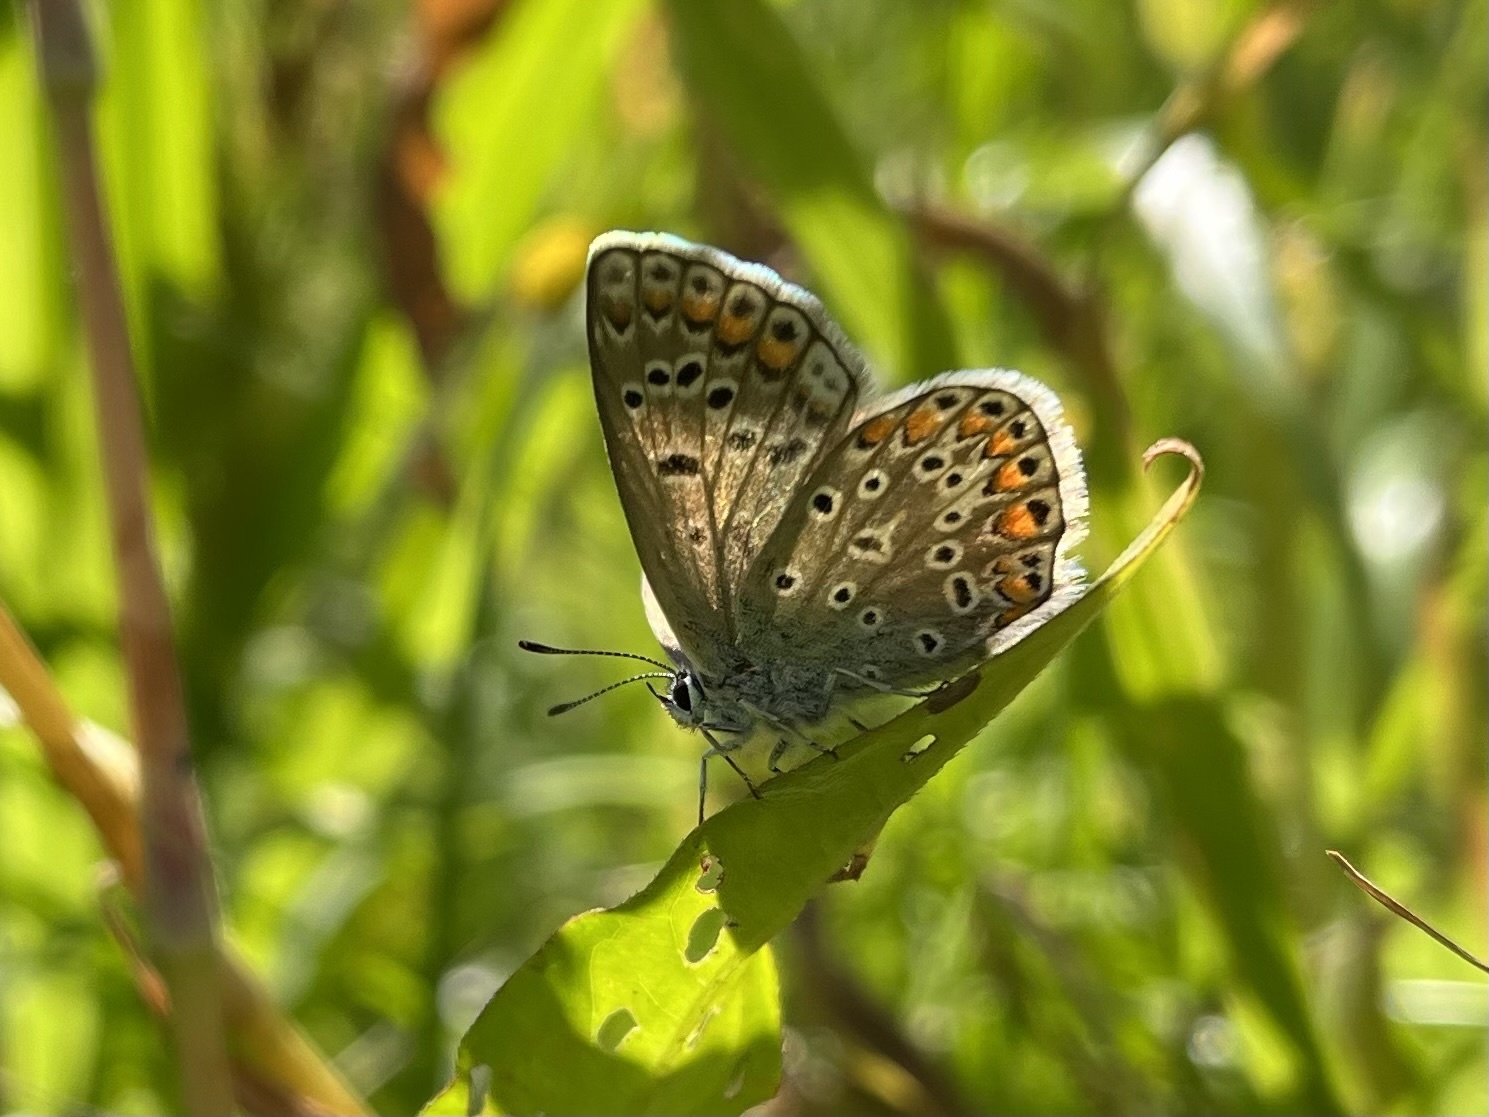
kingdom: Animalia
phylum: Arthropoda
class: Insecta
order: Lepidoptera
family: Lycaenidae
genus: Polyommatus
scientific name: Polyommatus icarus
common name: Common blue
